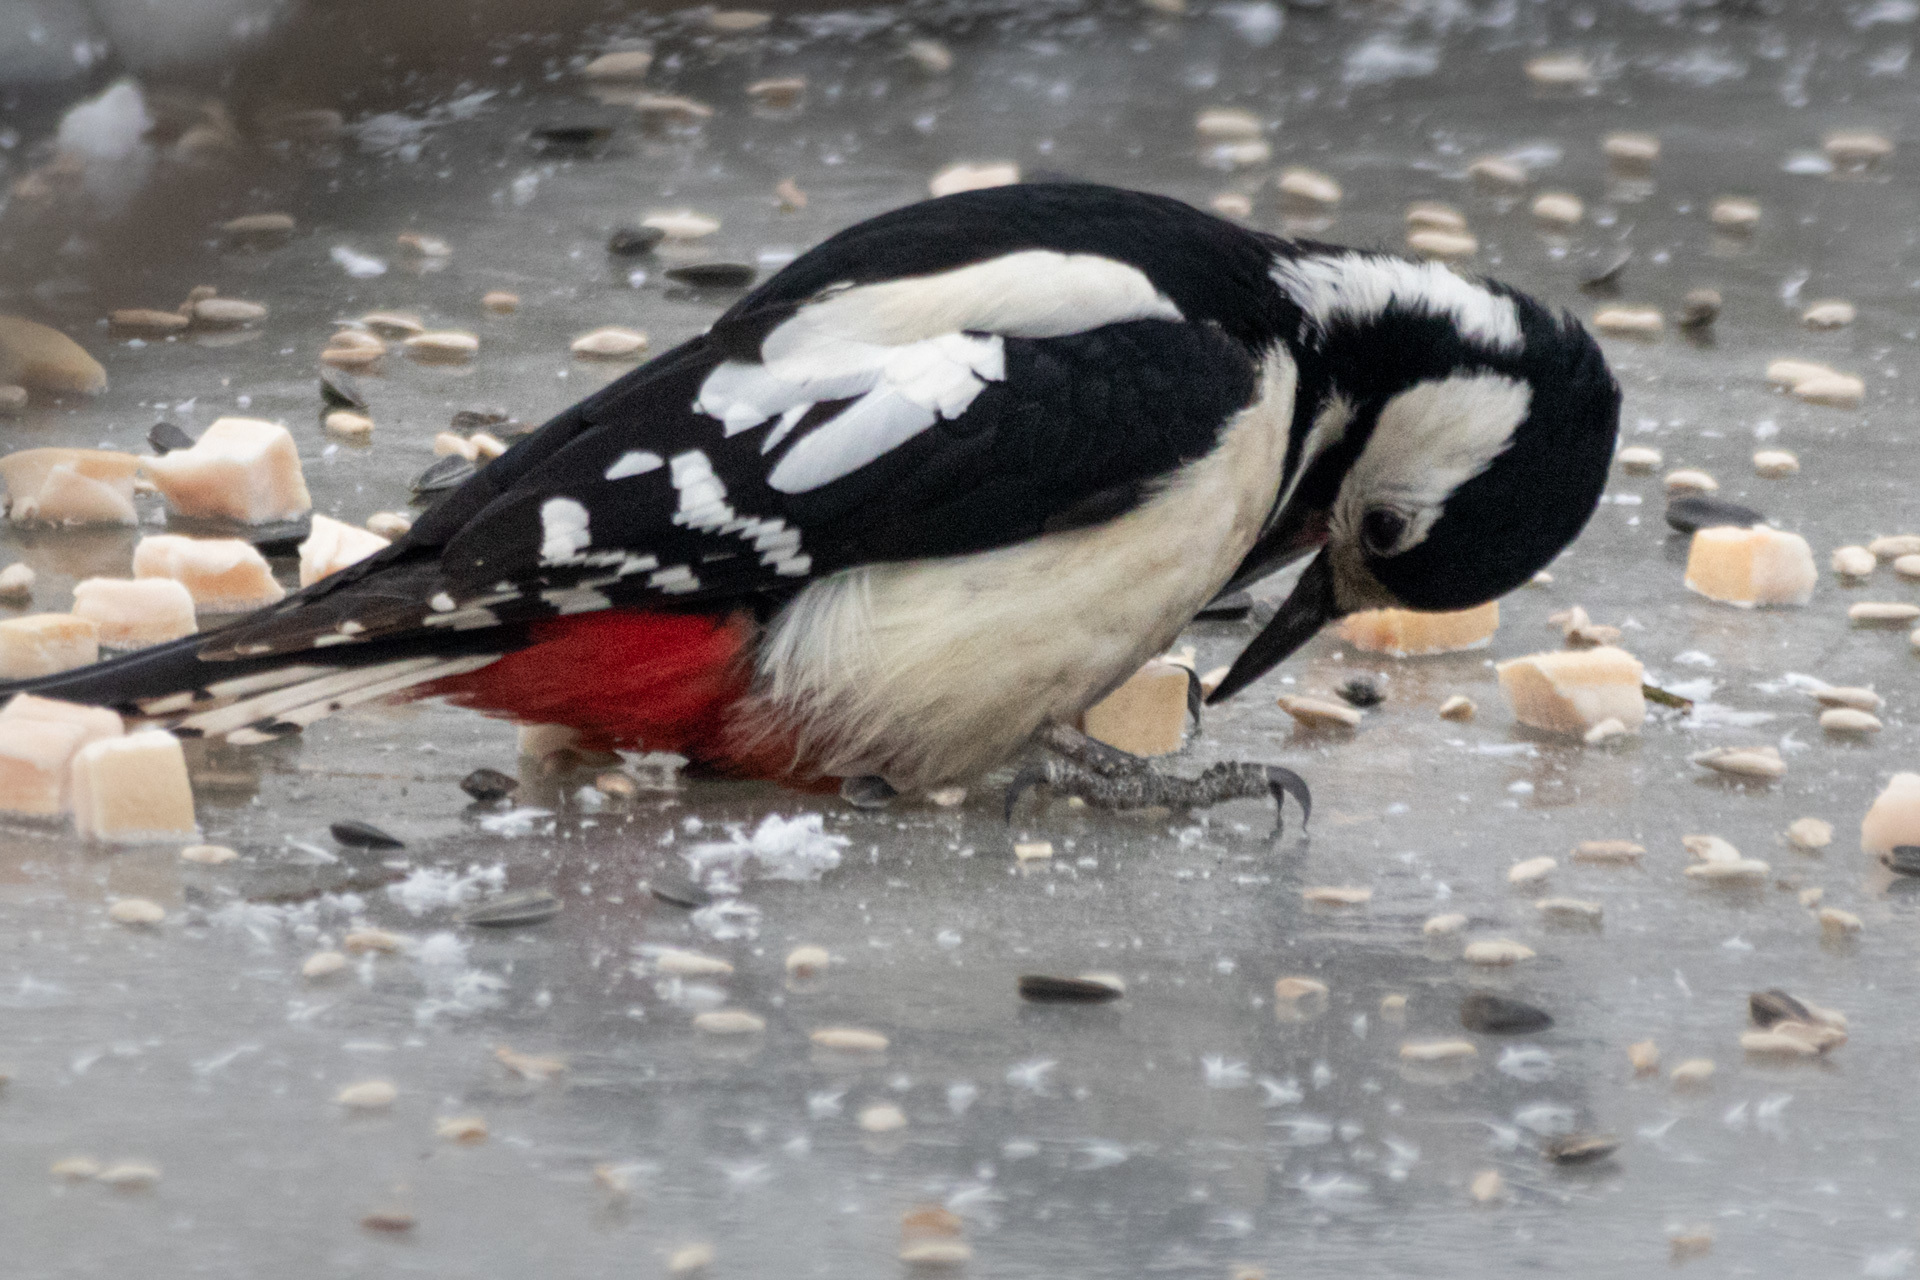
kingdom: Animalia
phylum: Chordata
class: Aves
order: Piciformes
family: Picidae
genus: Dendrocopos
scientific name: Dendrocopos major
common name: Great spotted woodpecker
